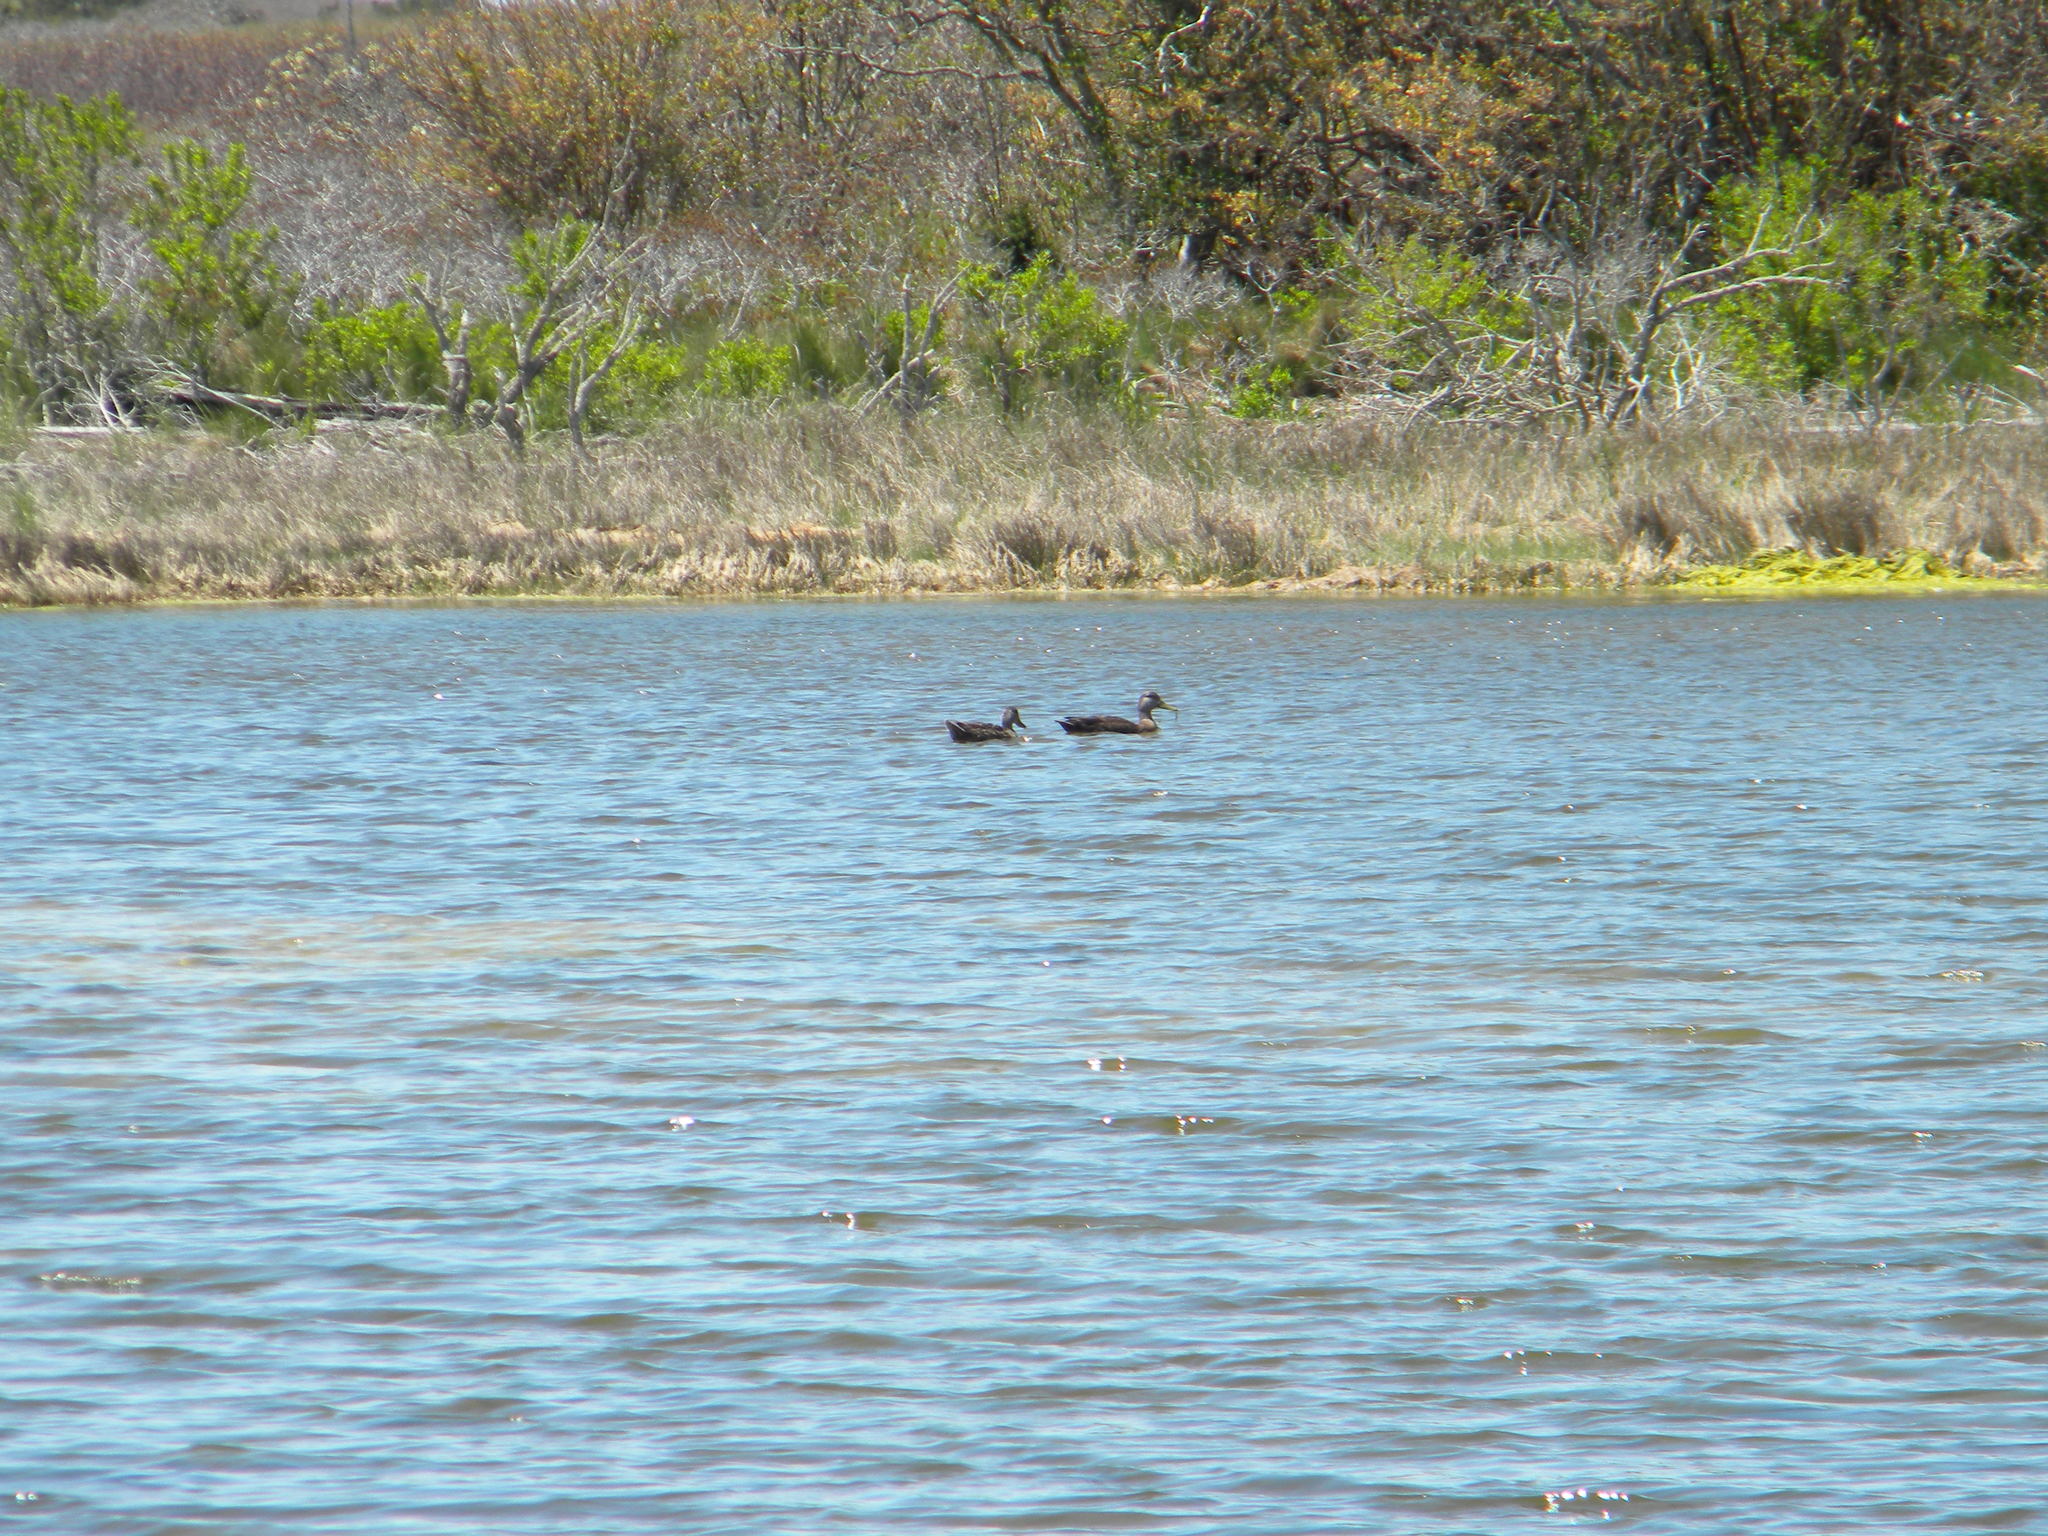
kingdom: Animalia
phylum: Chordata
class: Aves
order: Anseriformes
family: Anatidae
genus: Anas
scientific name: Anas rubripes
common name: American black duck
